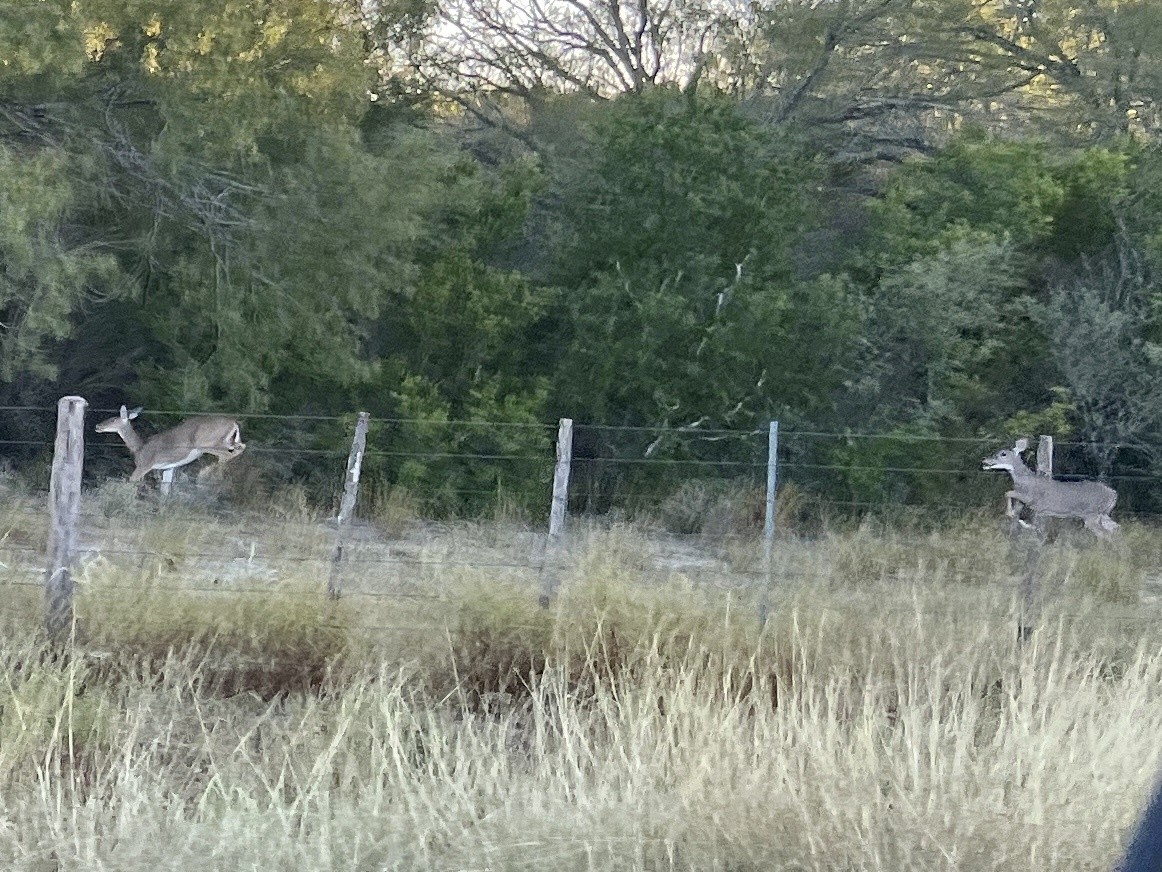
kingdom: Animalia
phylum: Chordata
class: Mammalia
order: Artiodactyla
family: Cervidae
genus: Odocoileus
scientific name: Odocoileus virginianus
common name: White-tailed deer
